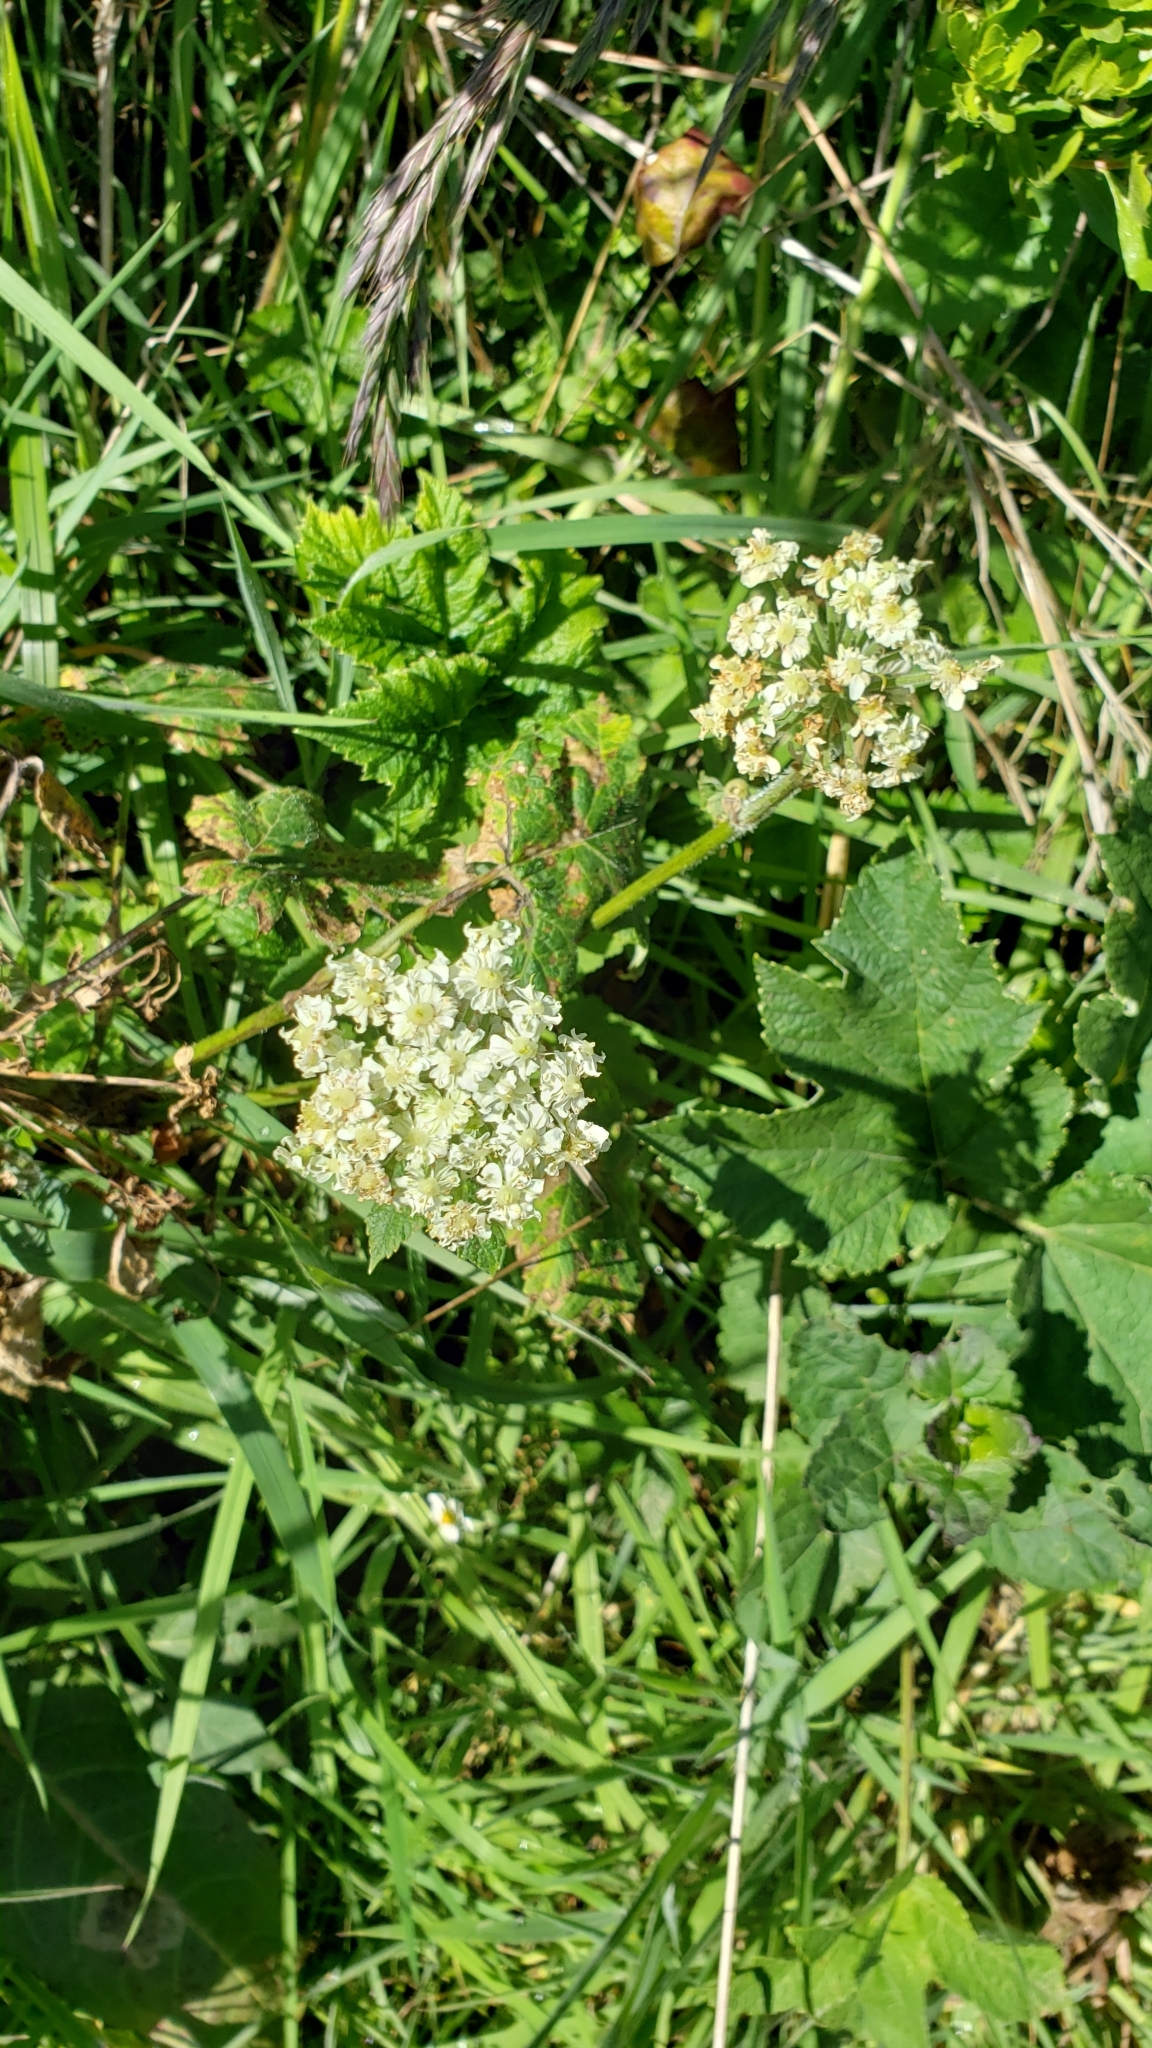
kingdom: Plantae
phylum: Tracheophyta
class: Magnoliopsida
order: Apiales
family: Apiaceae
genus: Heracleum
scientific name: Heracleum maximum
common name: American cow parsnip
